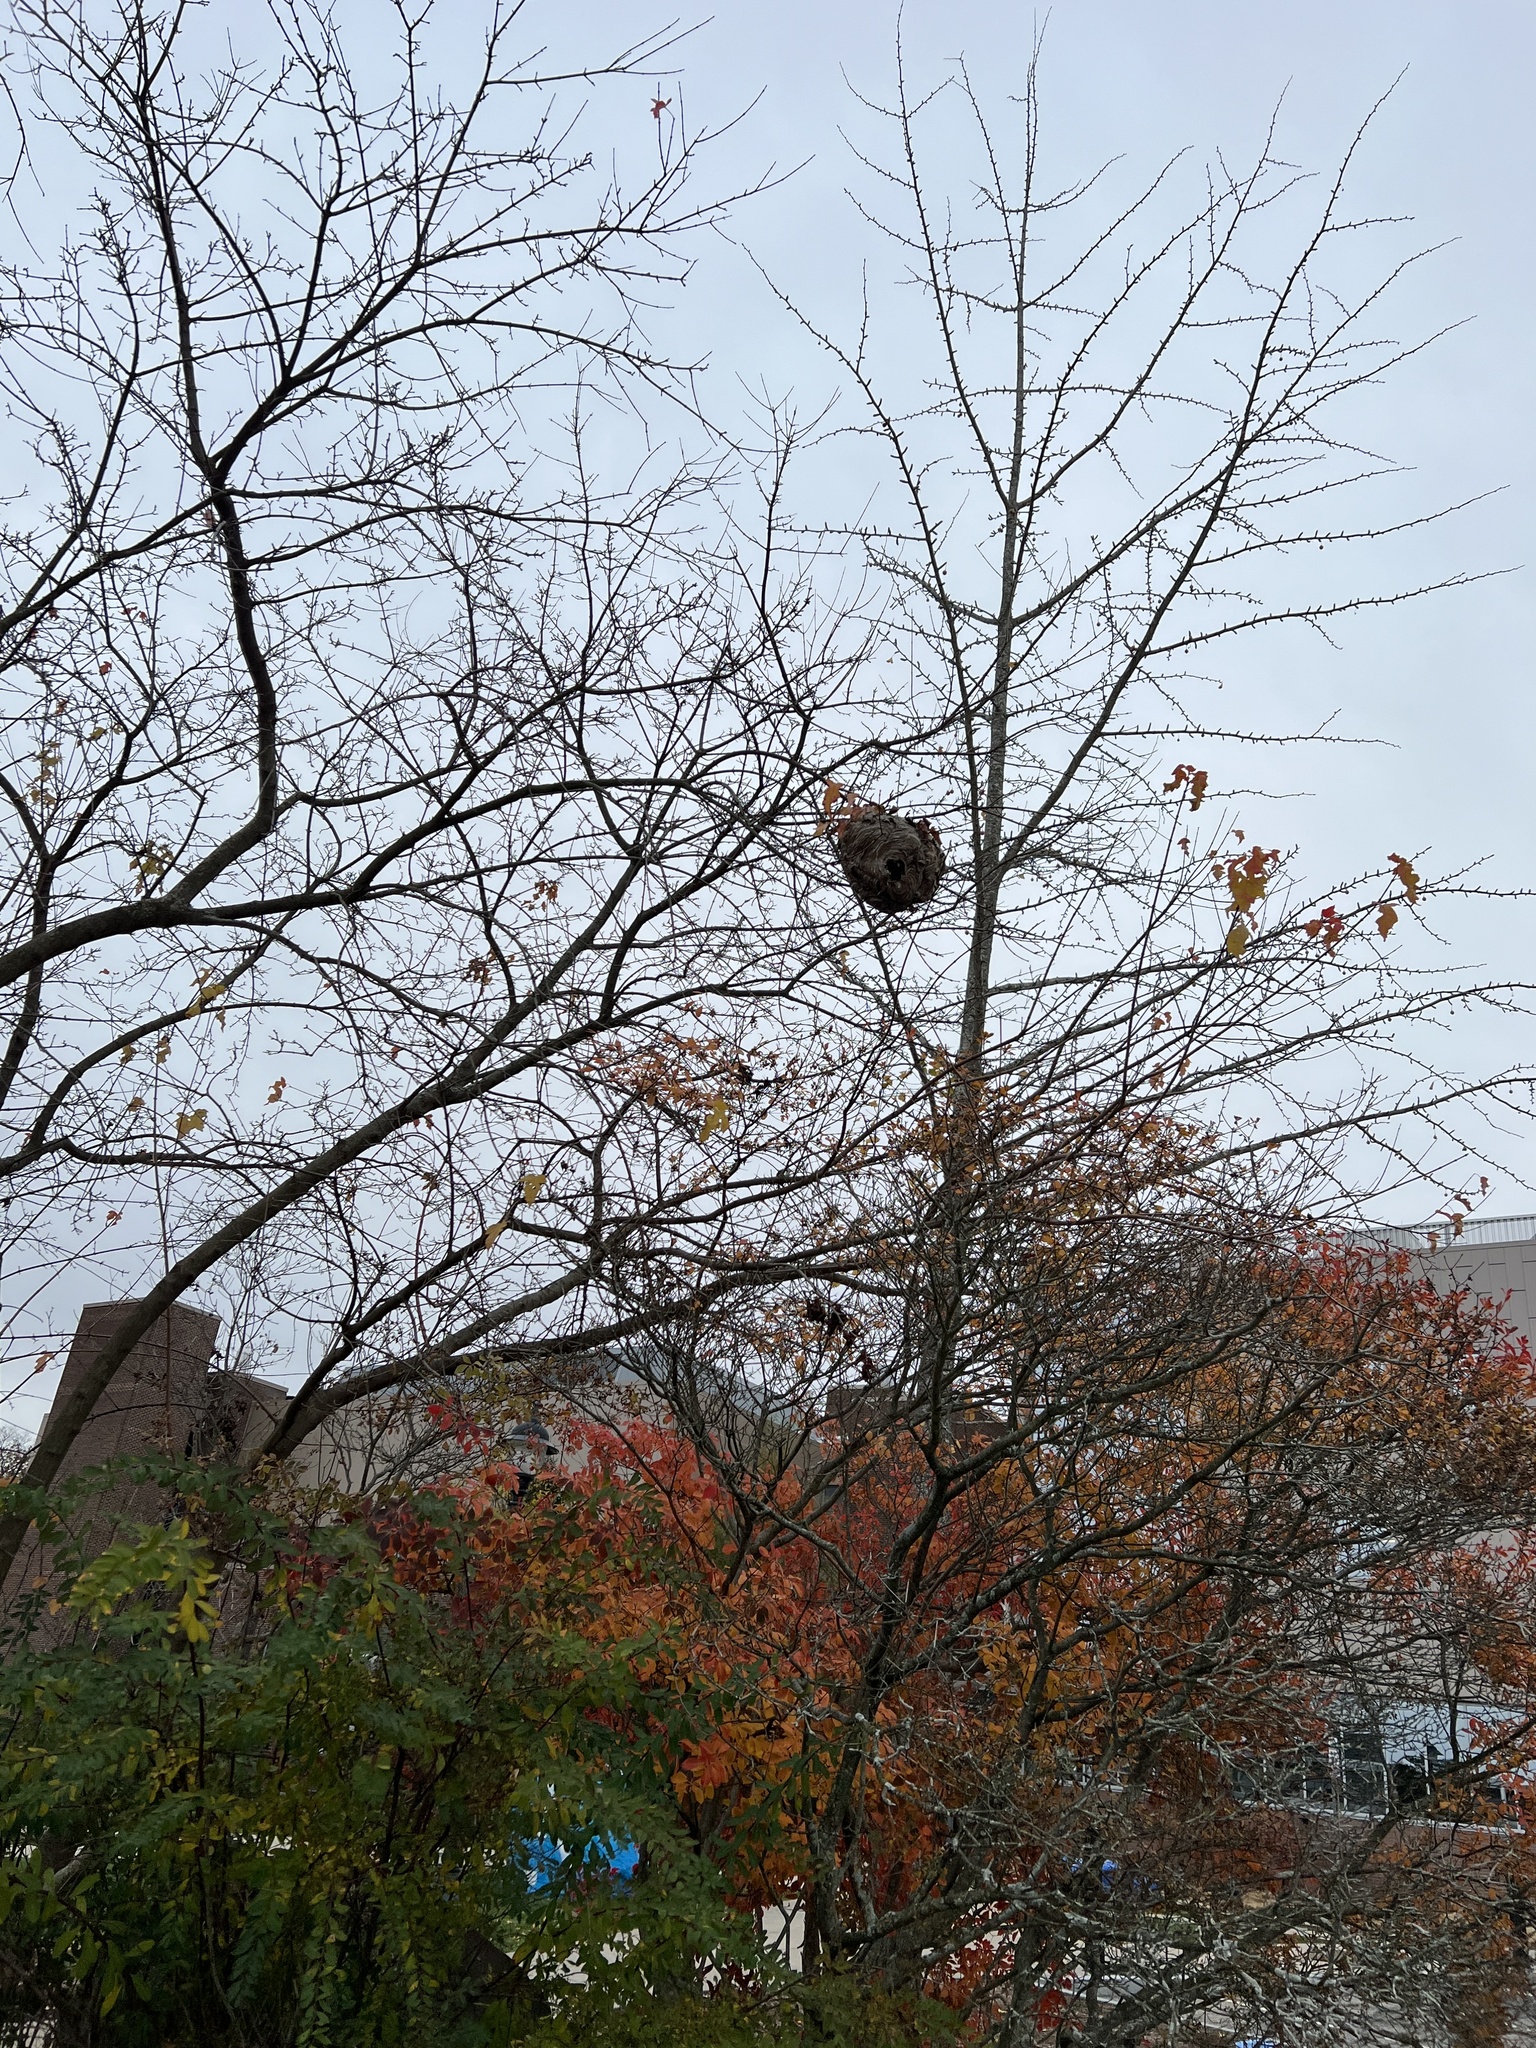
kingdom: Animalia
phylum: Arthropoda
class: Insecta
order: Hymenoptera
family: Vespidae
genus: Dolichovespula
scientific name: Dolichovespula maculata
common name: Bald-faced hornet
